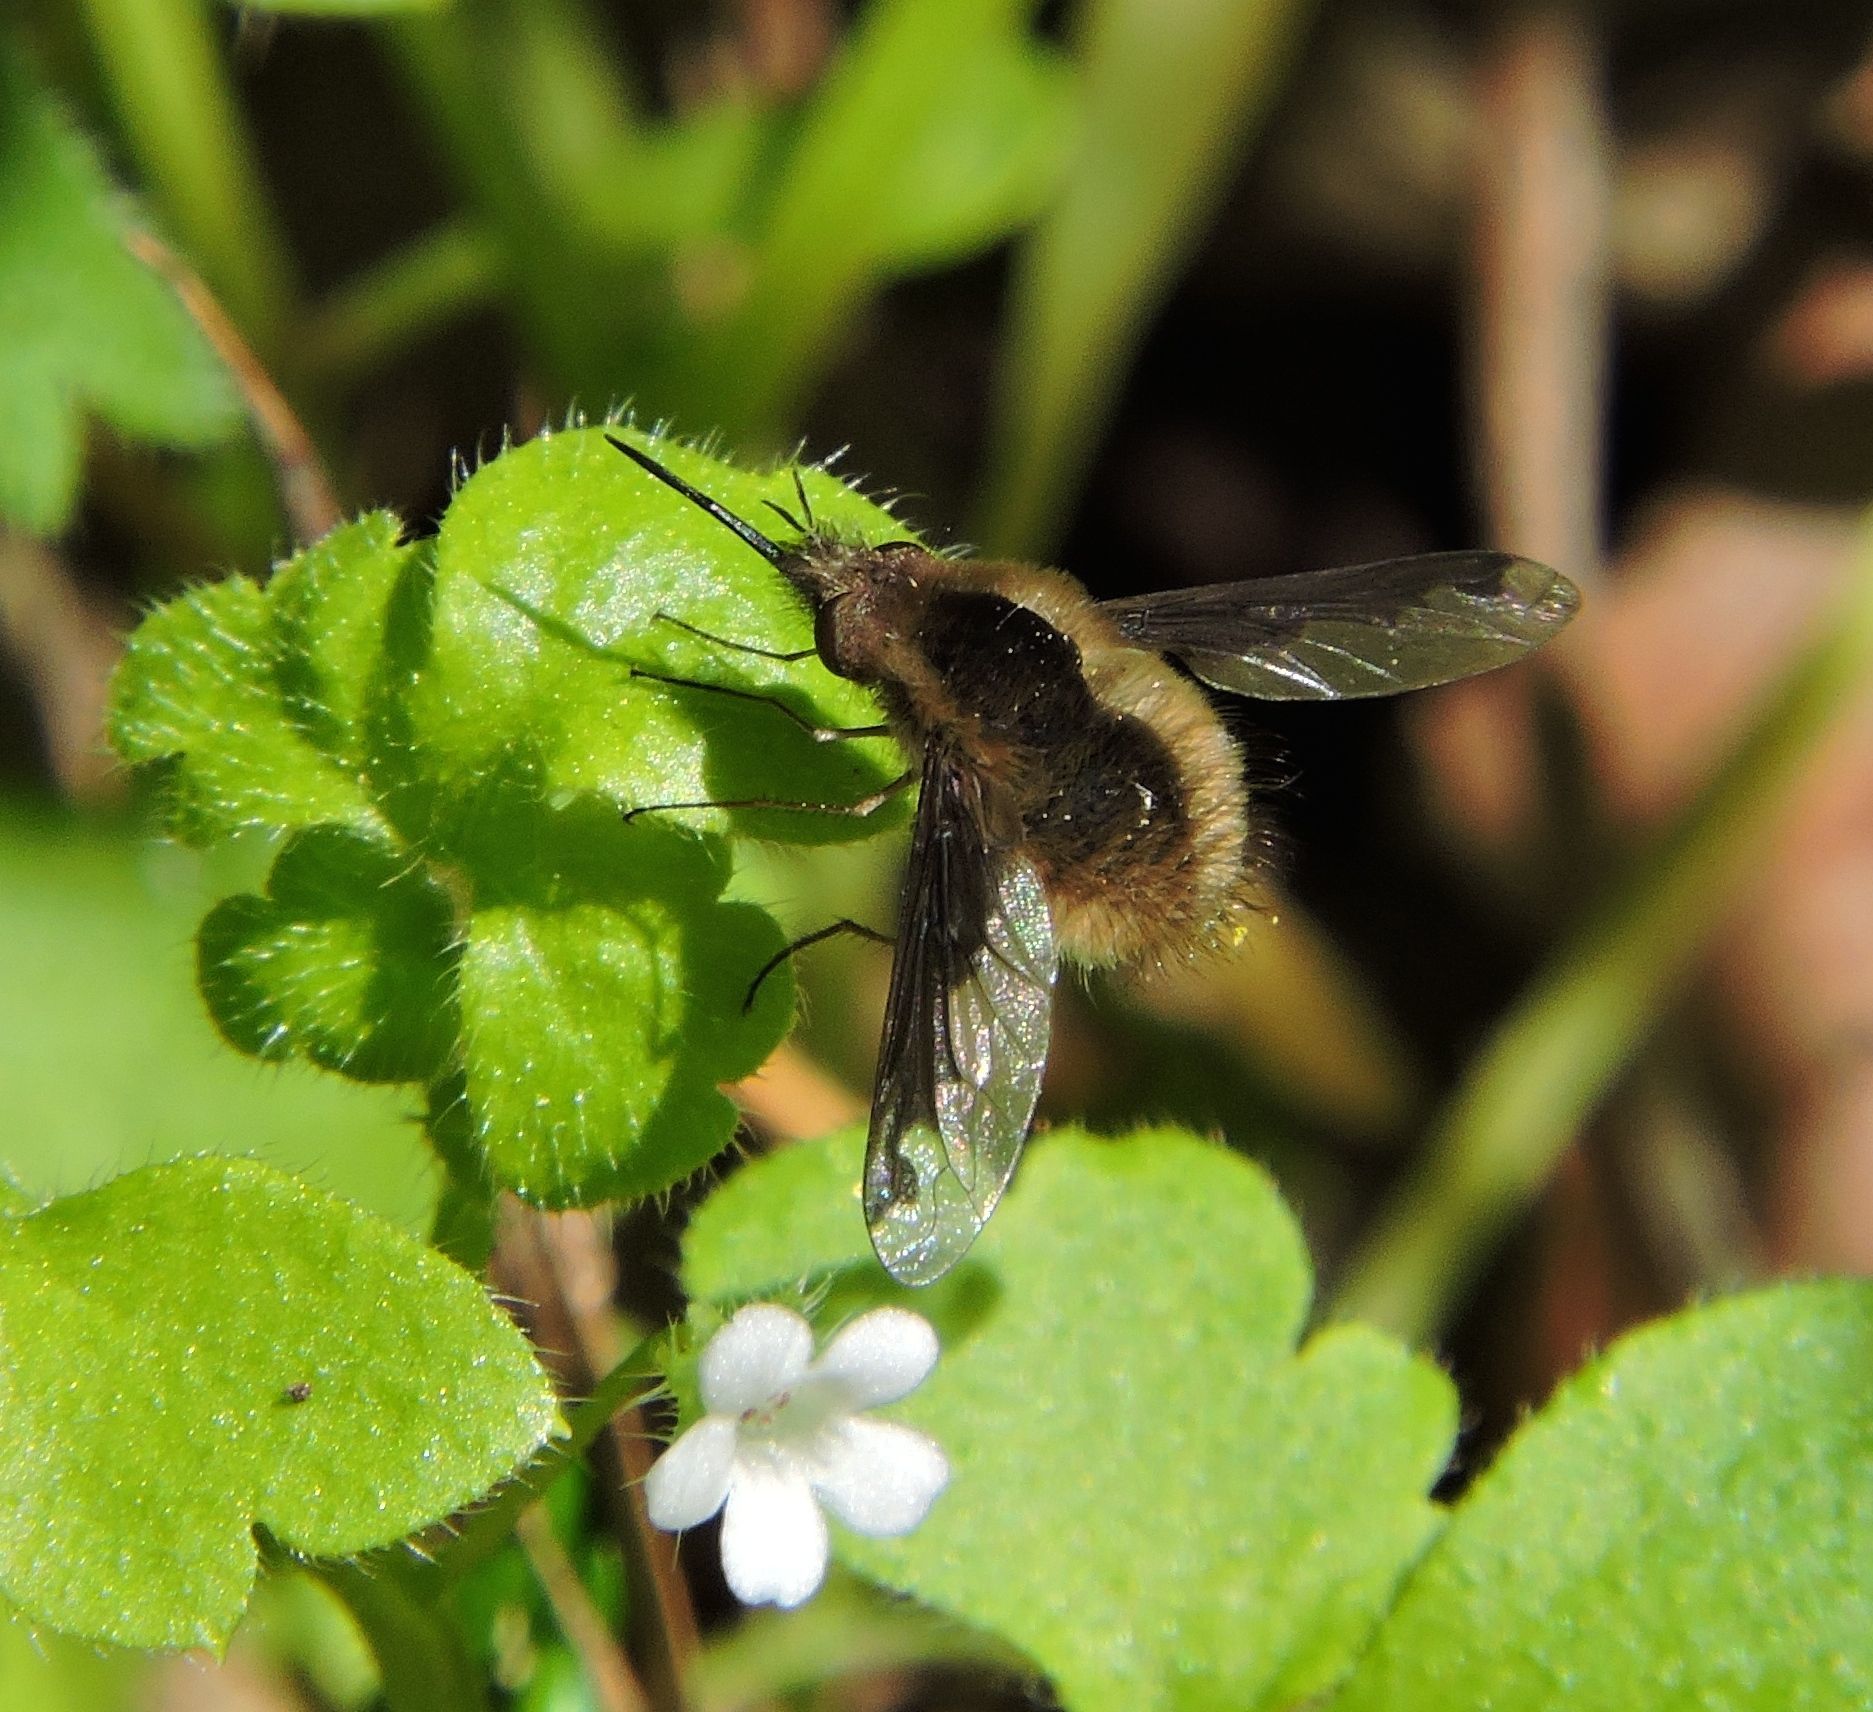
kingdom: Animalia
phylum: Arthropoda
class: Insecta
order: Diptera
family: Bombyliidae
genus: Bombylius
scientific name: Bombylius major
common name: Bee fly
